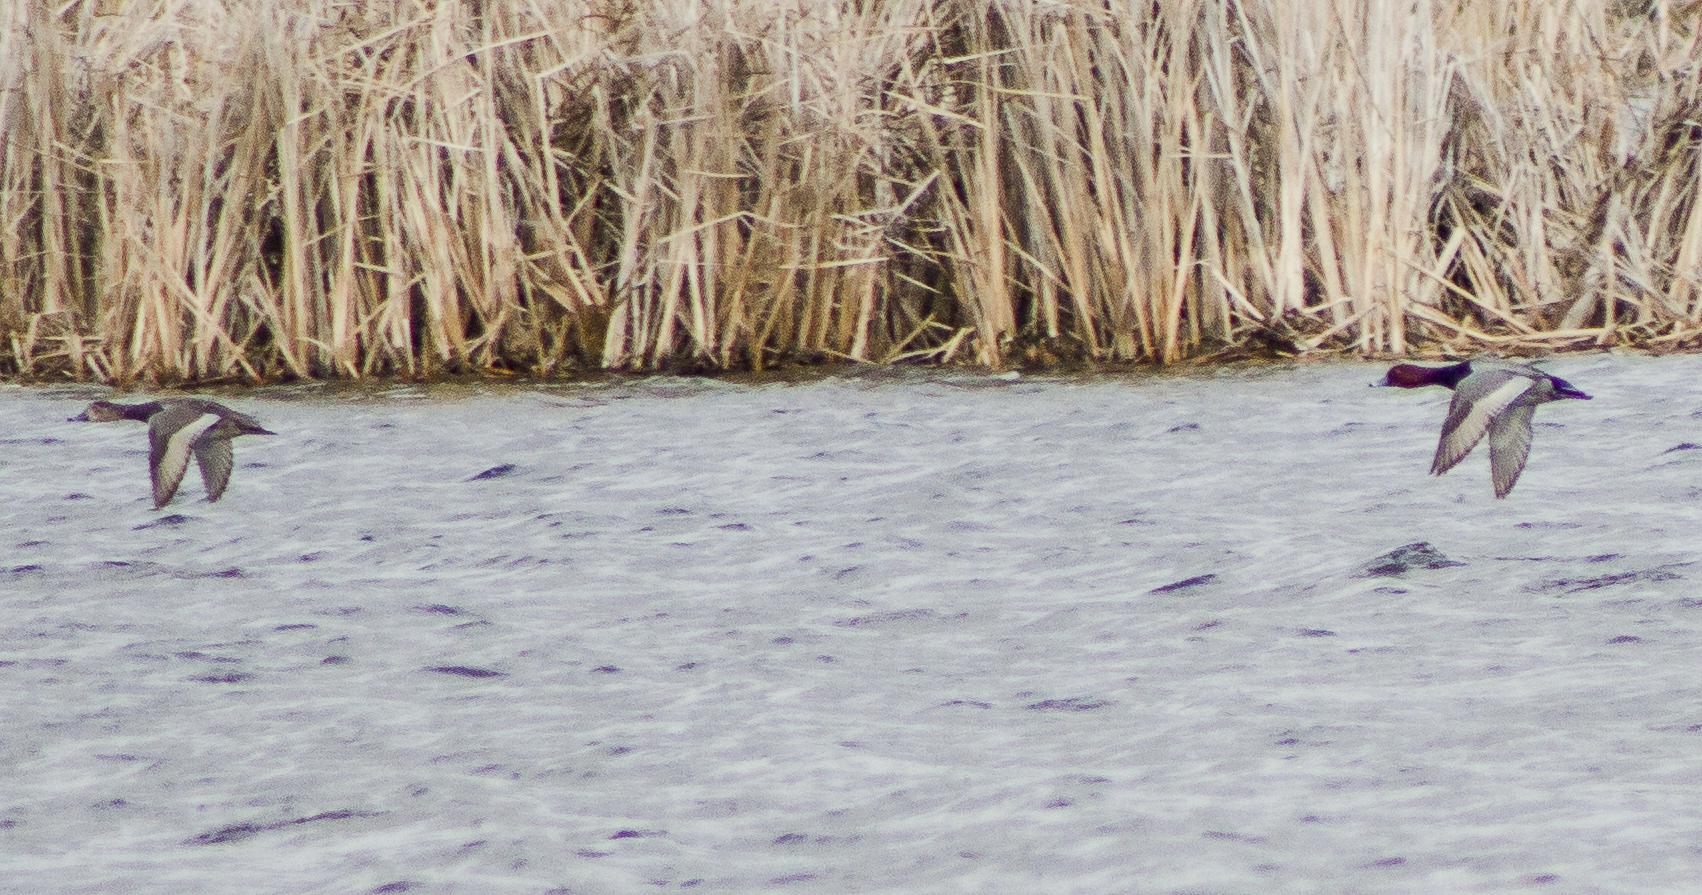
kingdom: Animalia
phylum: Chordata
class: Aves
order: Anseriformes
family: Anatidae
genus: Aythya
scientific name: Aythya americana
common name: Redhead
